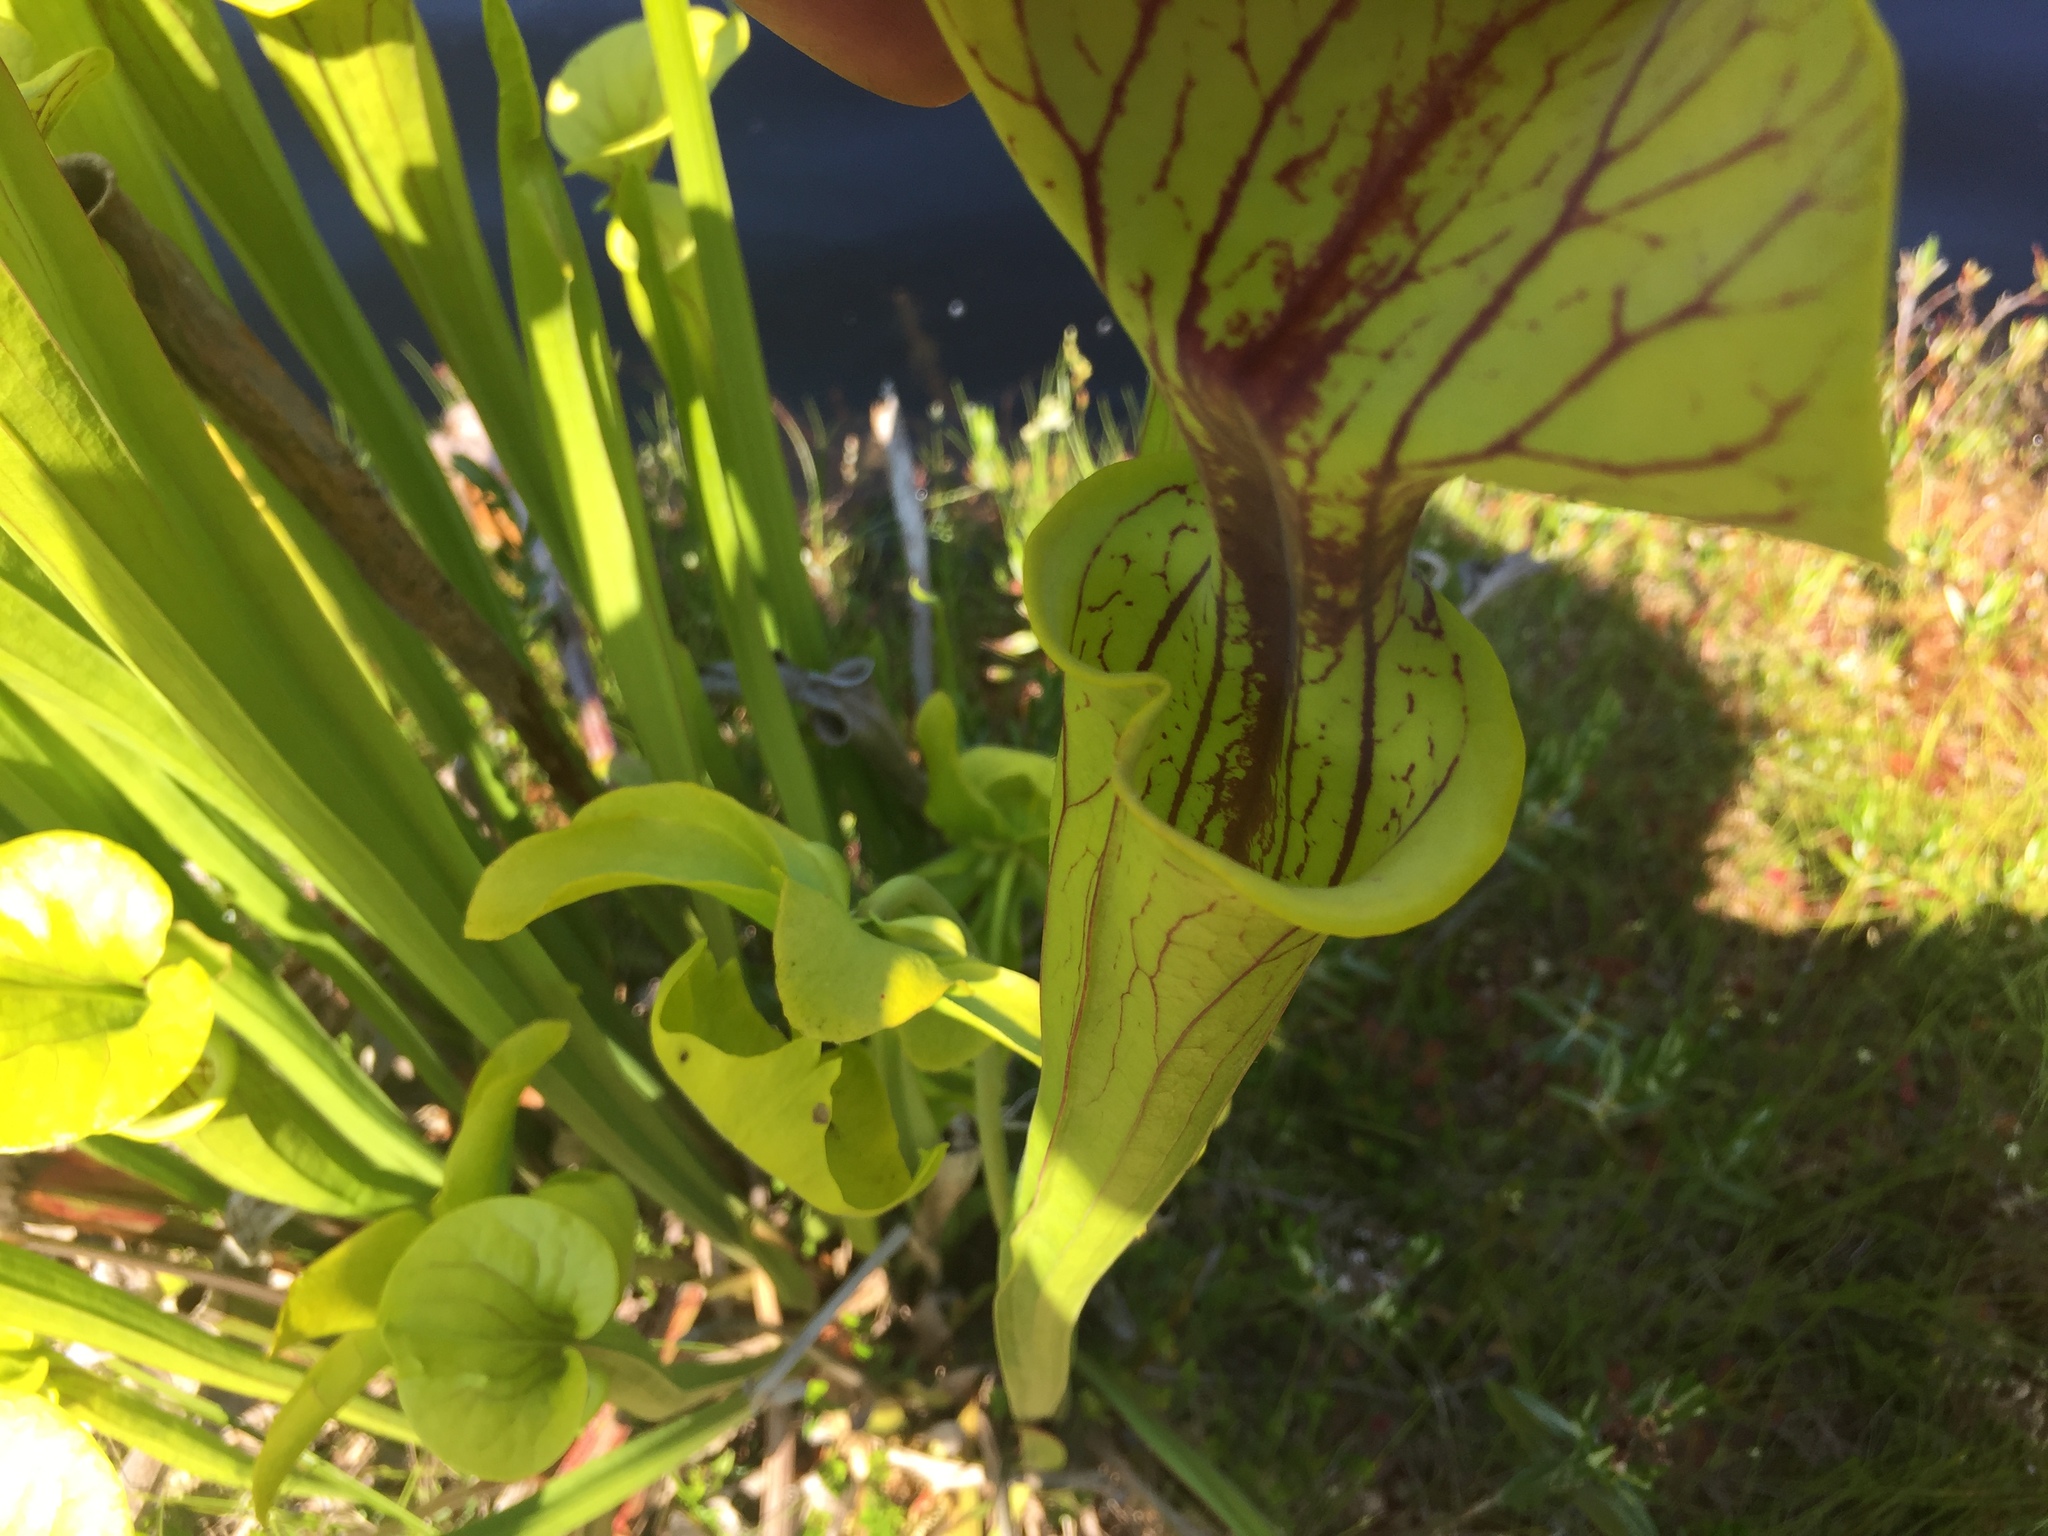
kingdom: Plantae
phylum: Tracheophyta
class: Magnoliopsida
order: Ericales
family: Sarraceniaceae
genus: Sarracenia
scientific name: Sarracenia flava
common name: Trumpets
